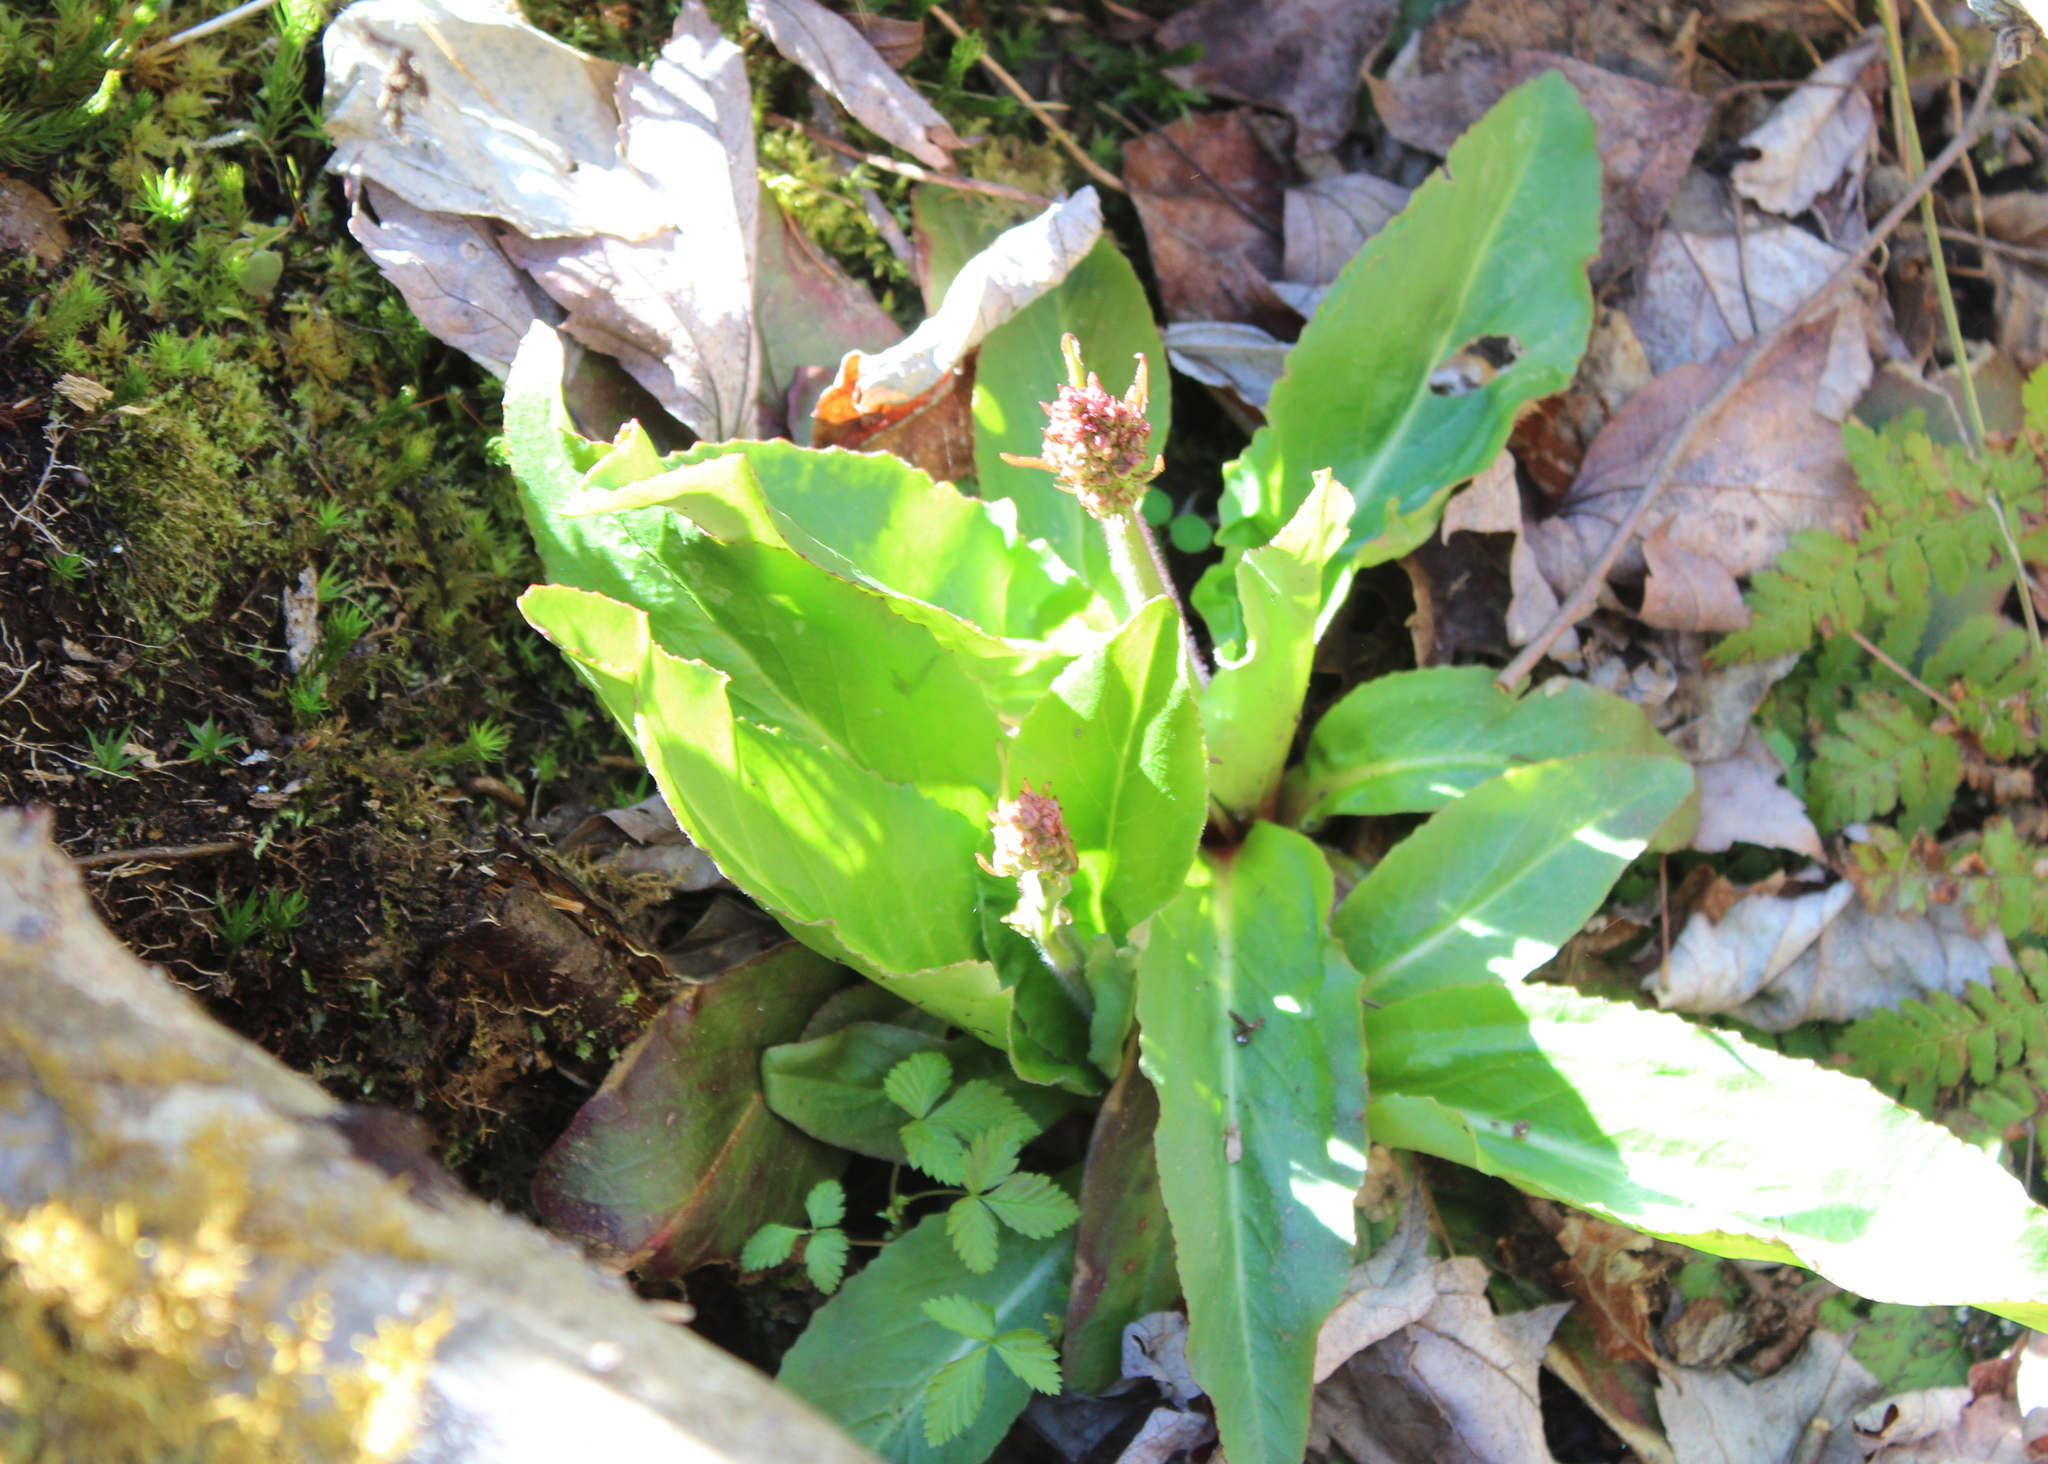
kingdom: Plantae
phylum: Tracheophyta
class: Magnoliopsida
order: Saxifragales
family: Saxifragaceae
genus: Micranthes
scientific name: Micranthes pensylvanica
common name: Marsh saxifrage
